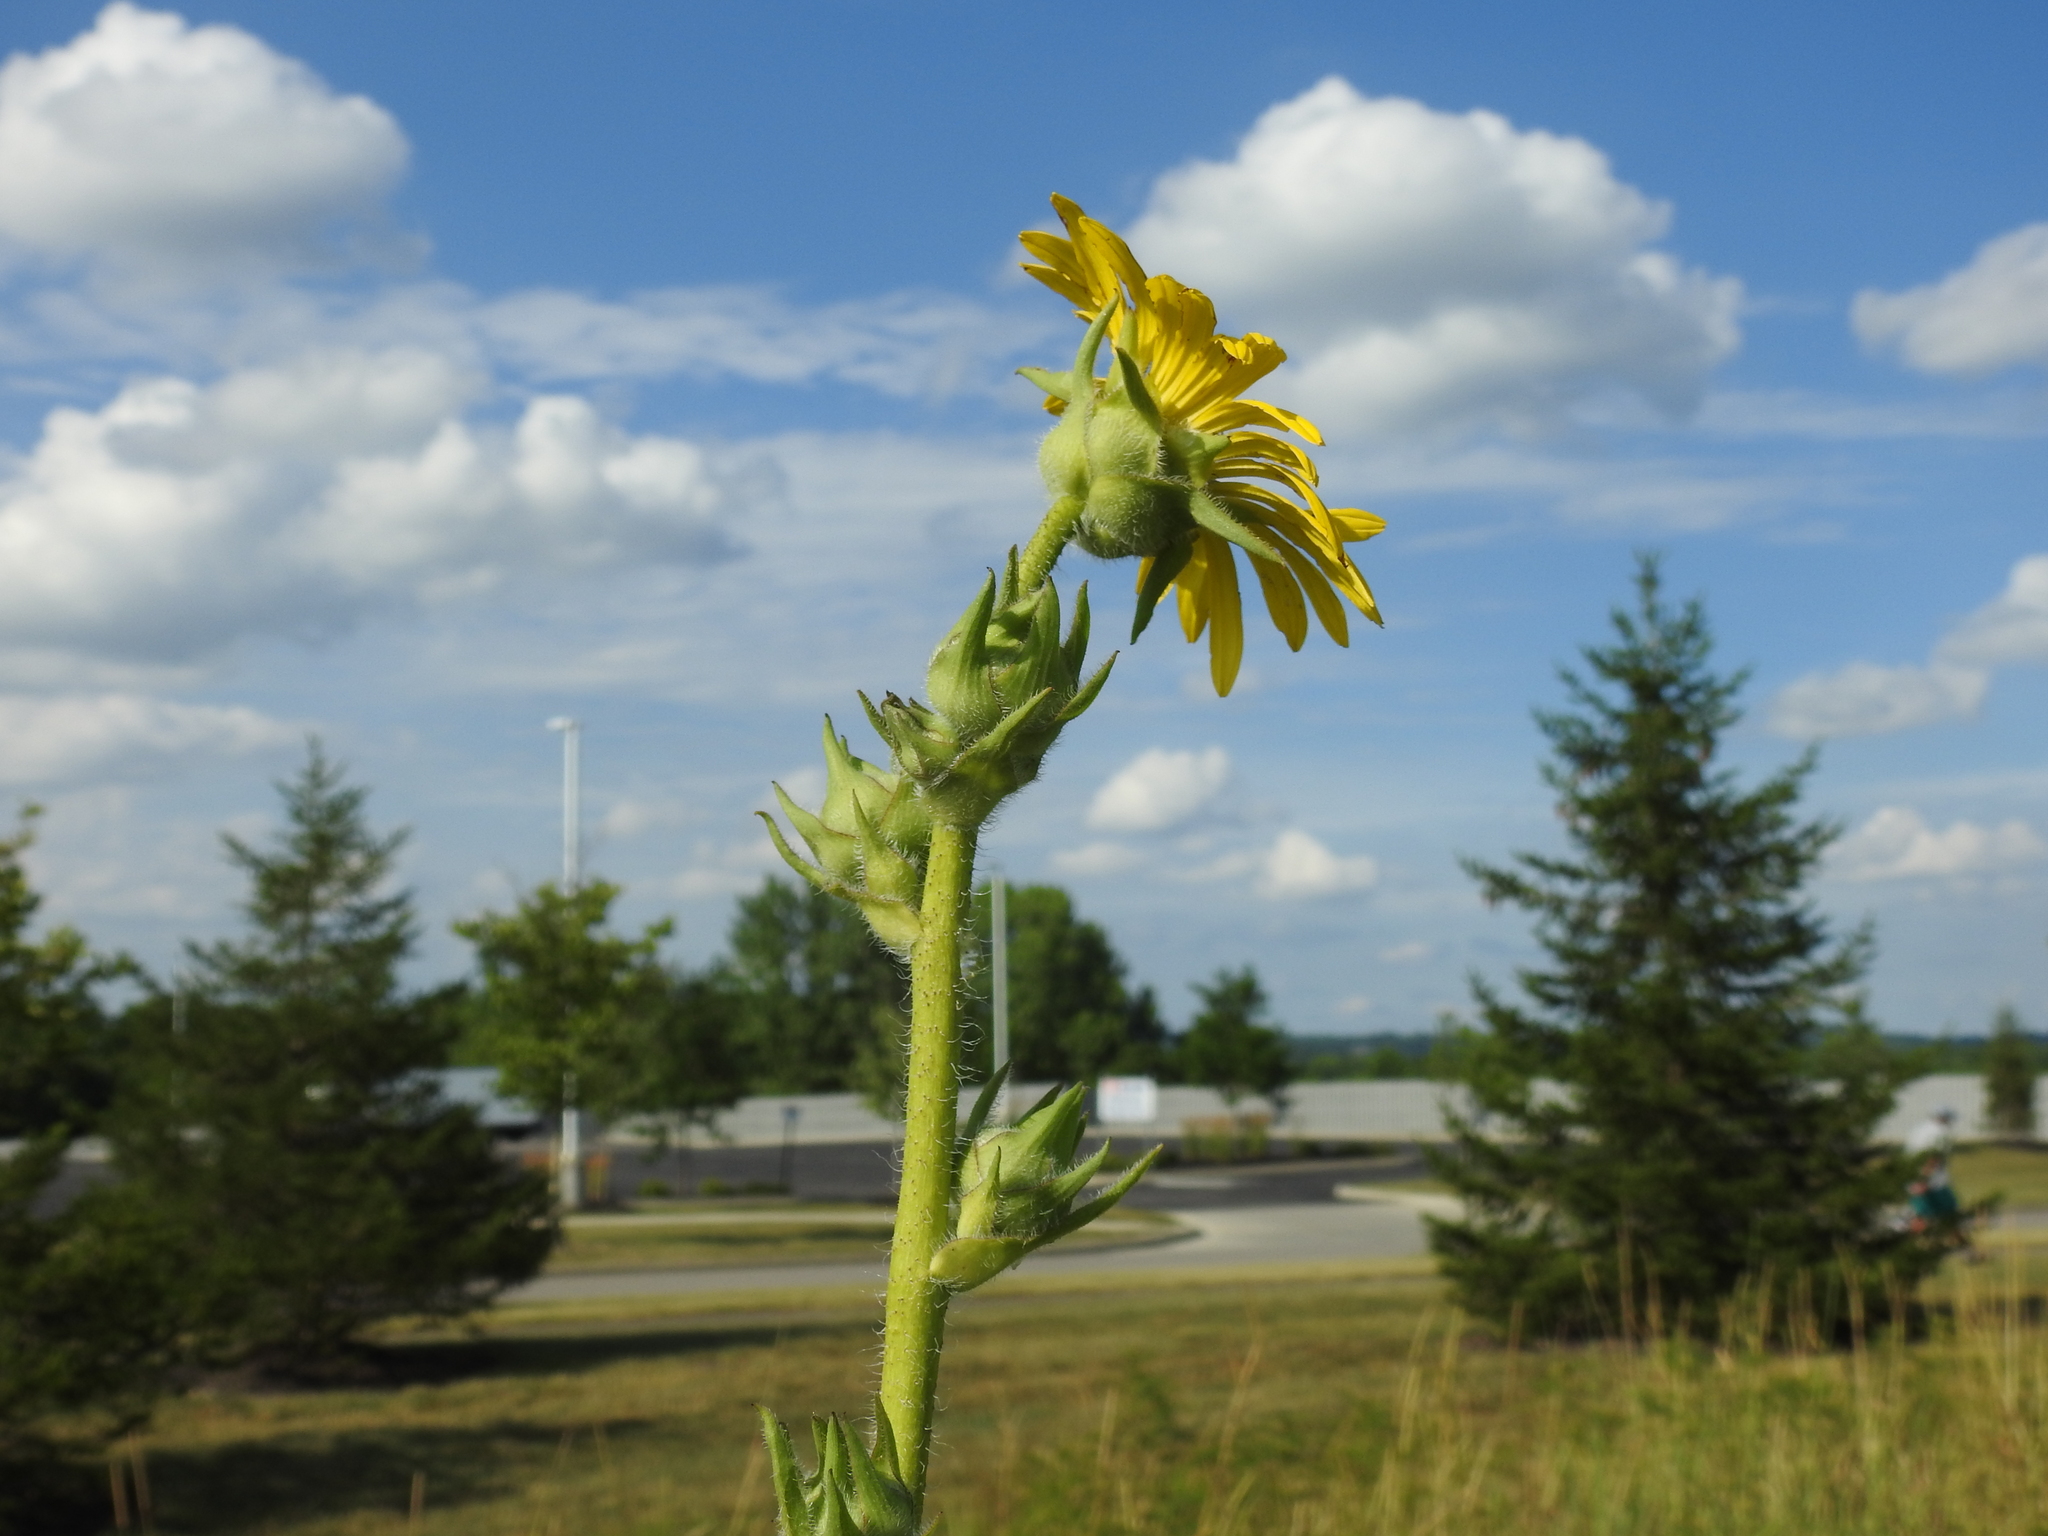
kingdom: Plantae
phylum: Tracheophyta
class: Magnoliopsida
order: Asterales
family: Asteraceae
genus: Silphium
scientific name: Silphium laciniatum
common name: Polarplant
